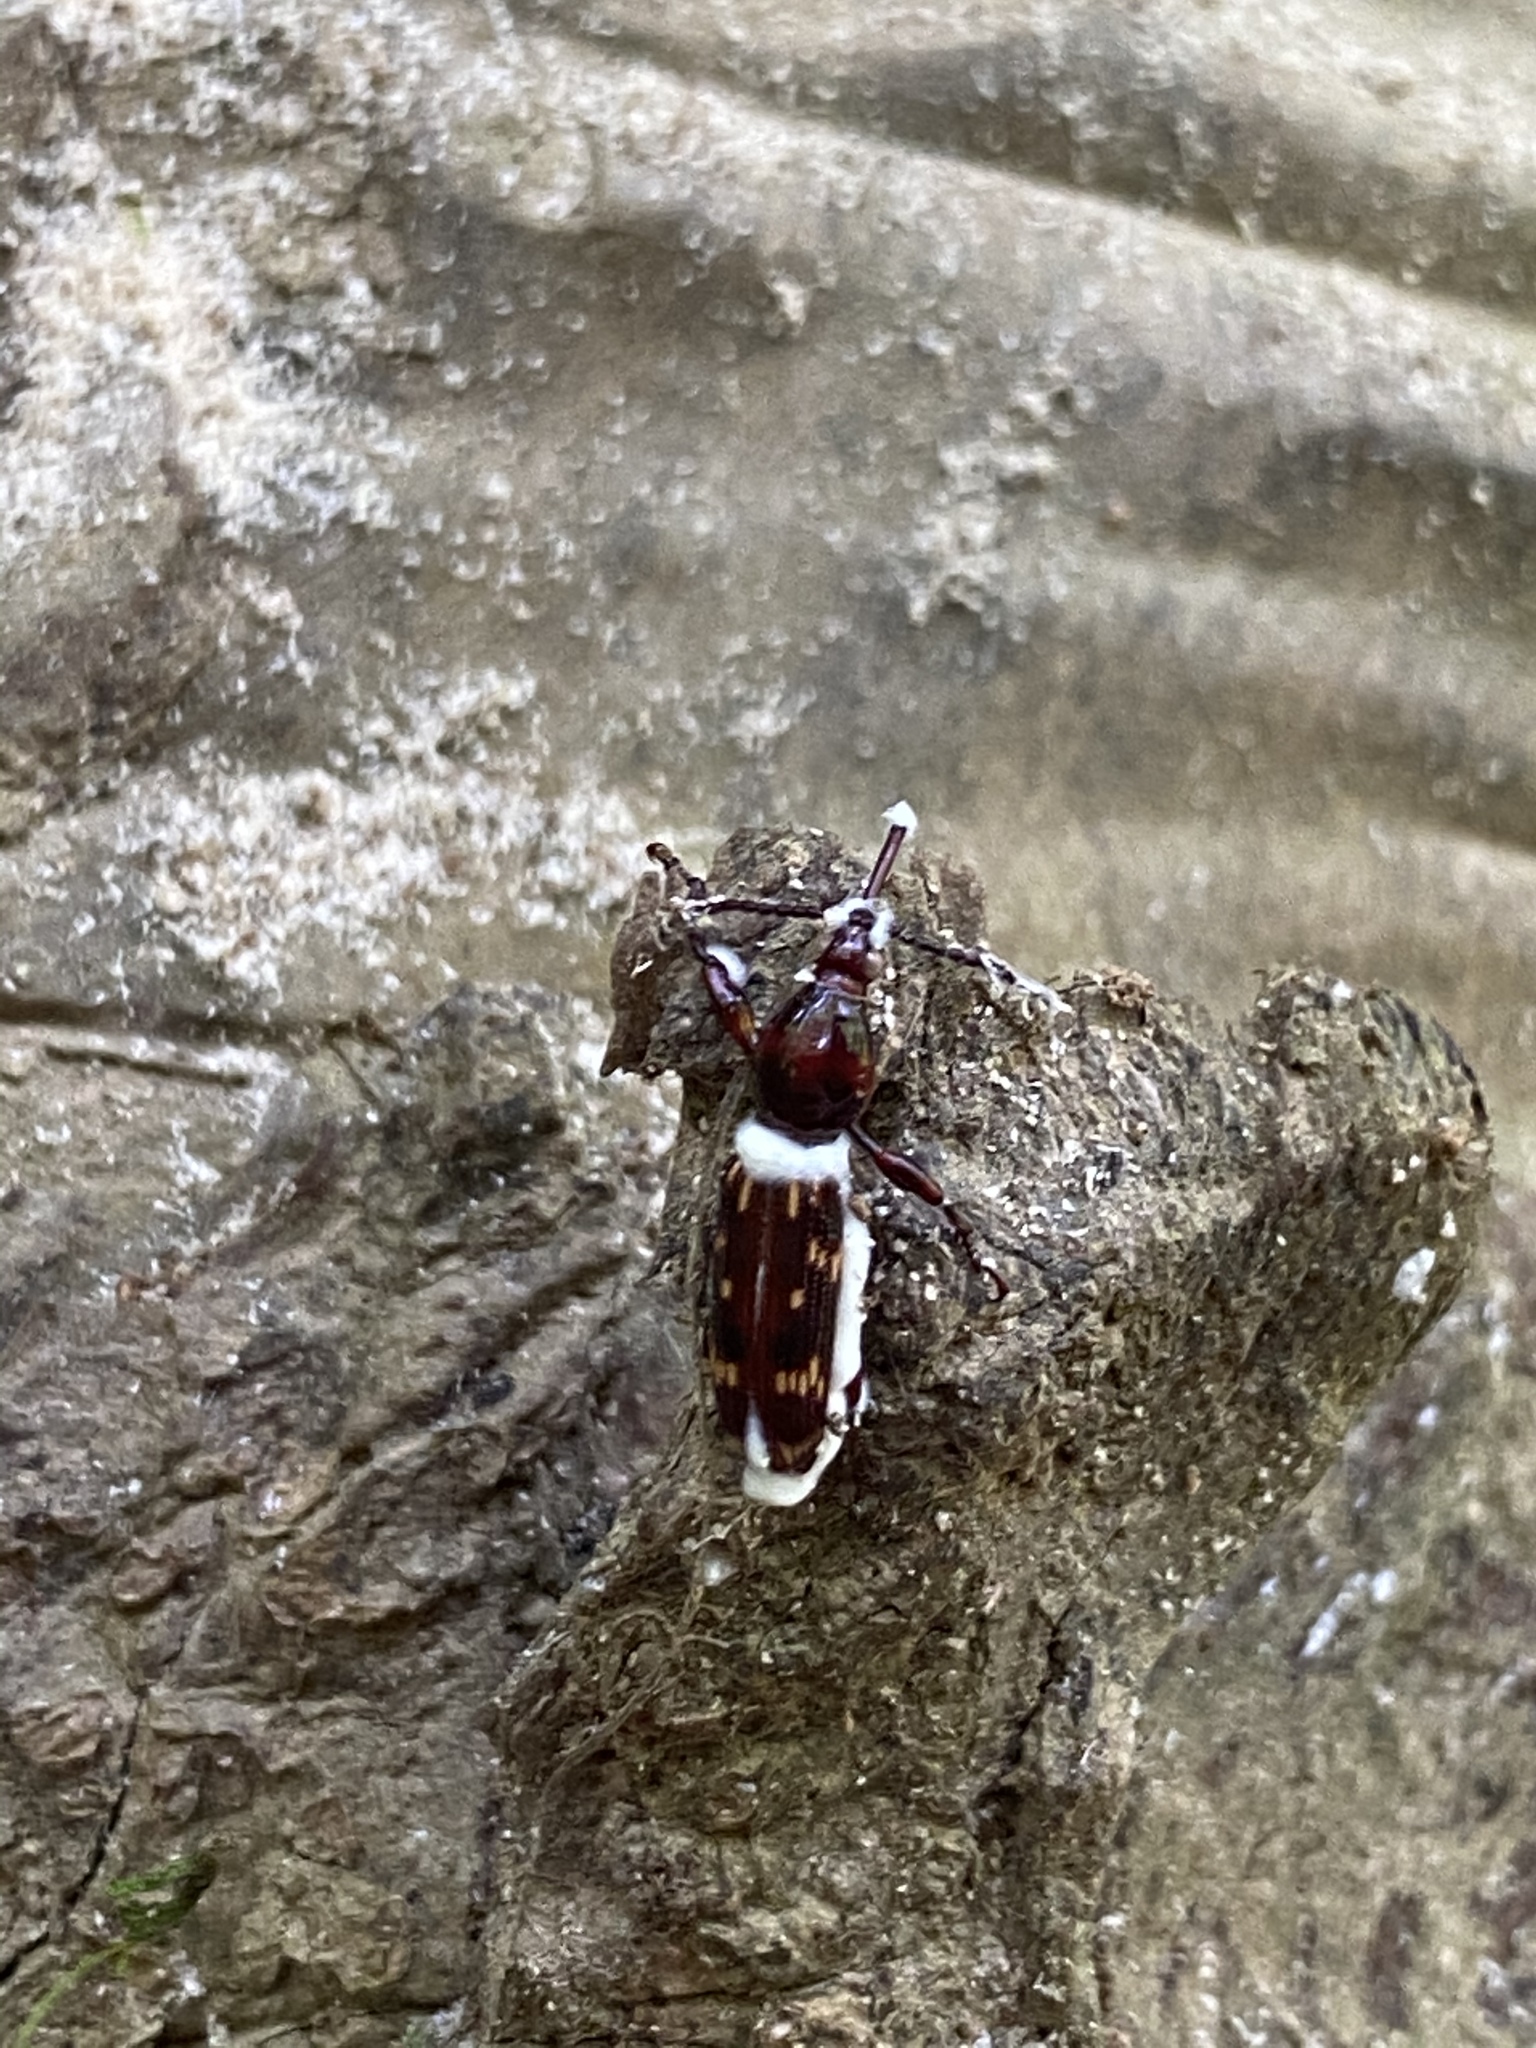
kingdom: Animalia
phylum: Arthropoda
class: Insecta
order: Coleoptera
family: Brentidae
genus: Arrenodes
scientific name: Arrenodes minutus
